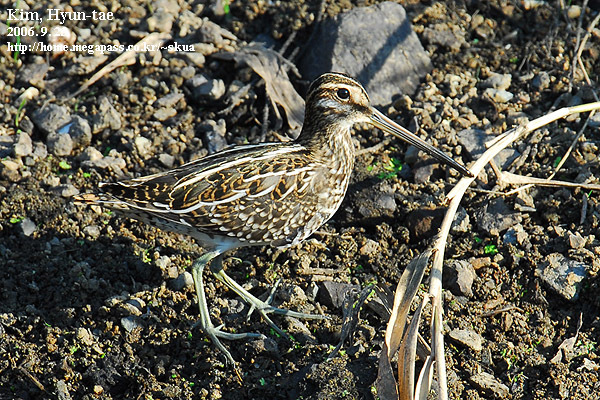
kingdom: Animalia
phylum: Chordata
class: Aves
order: Charadriiformes
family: Scolopacidae
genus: Gallinago
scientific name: Gallinago gallinago
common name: Common snipe
